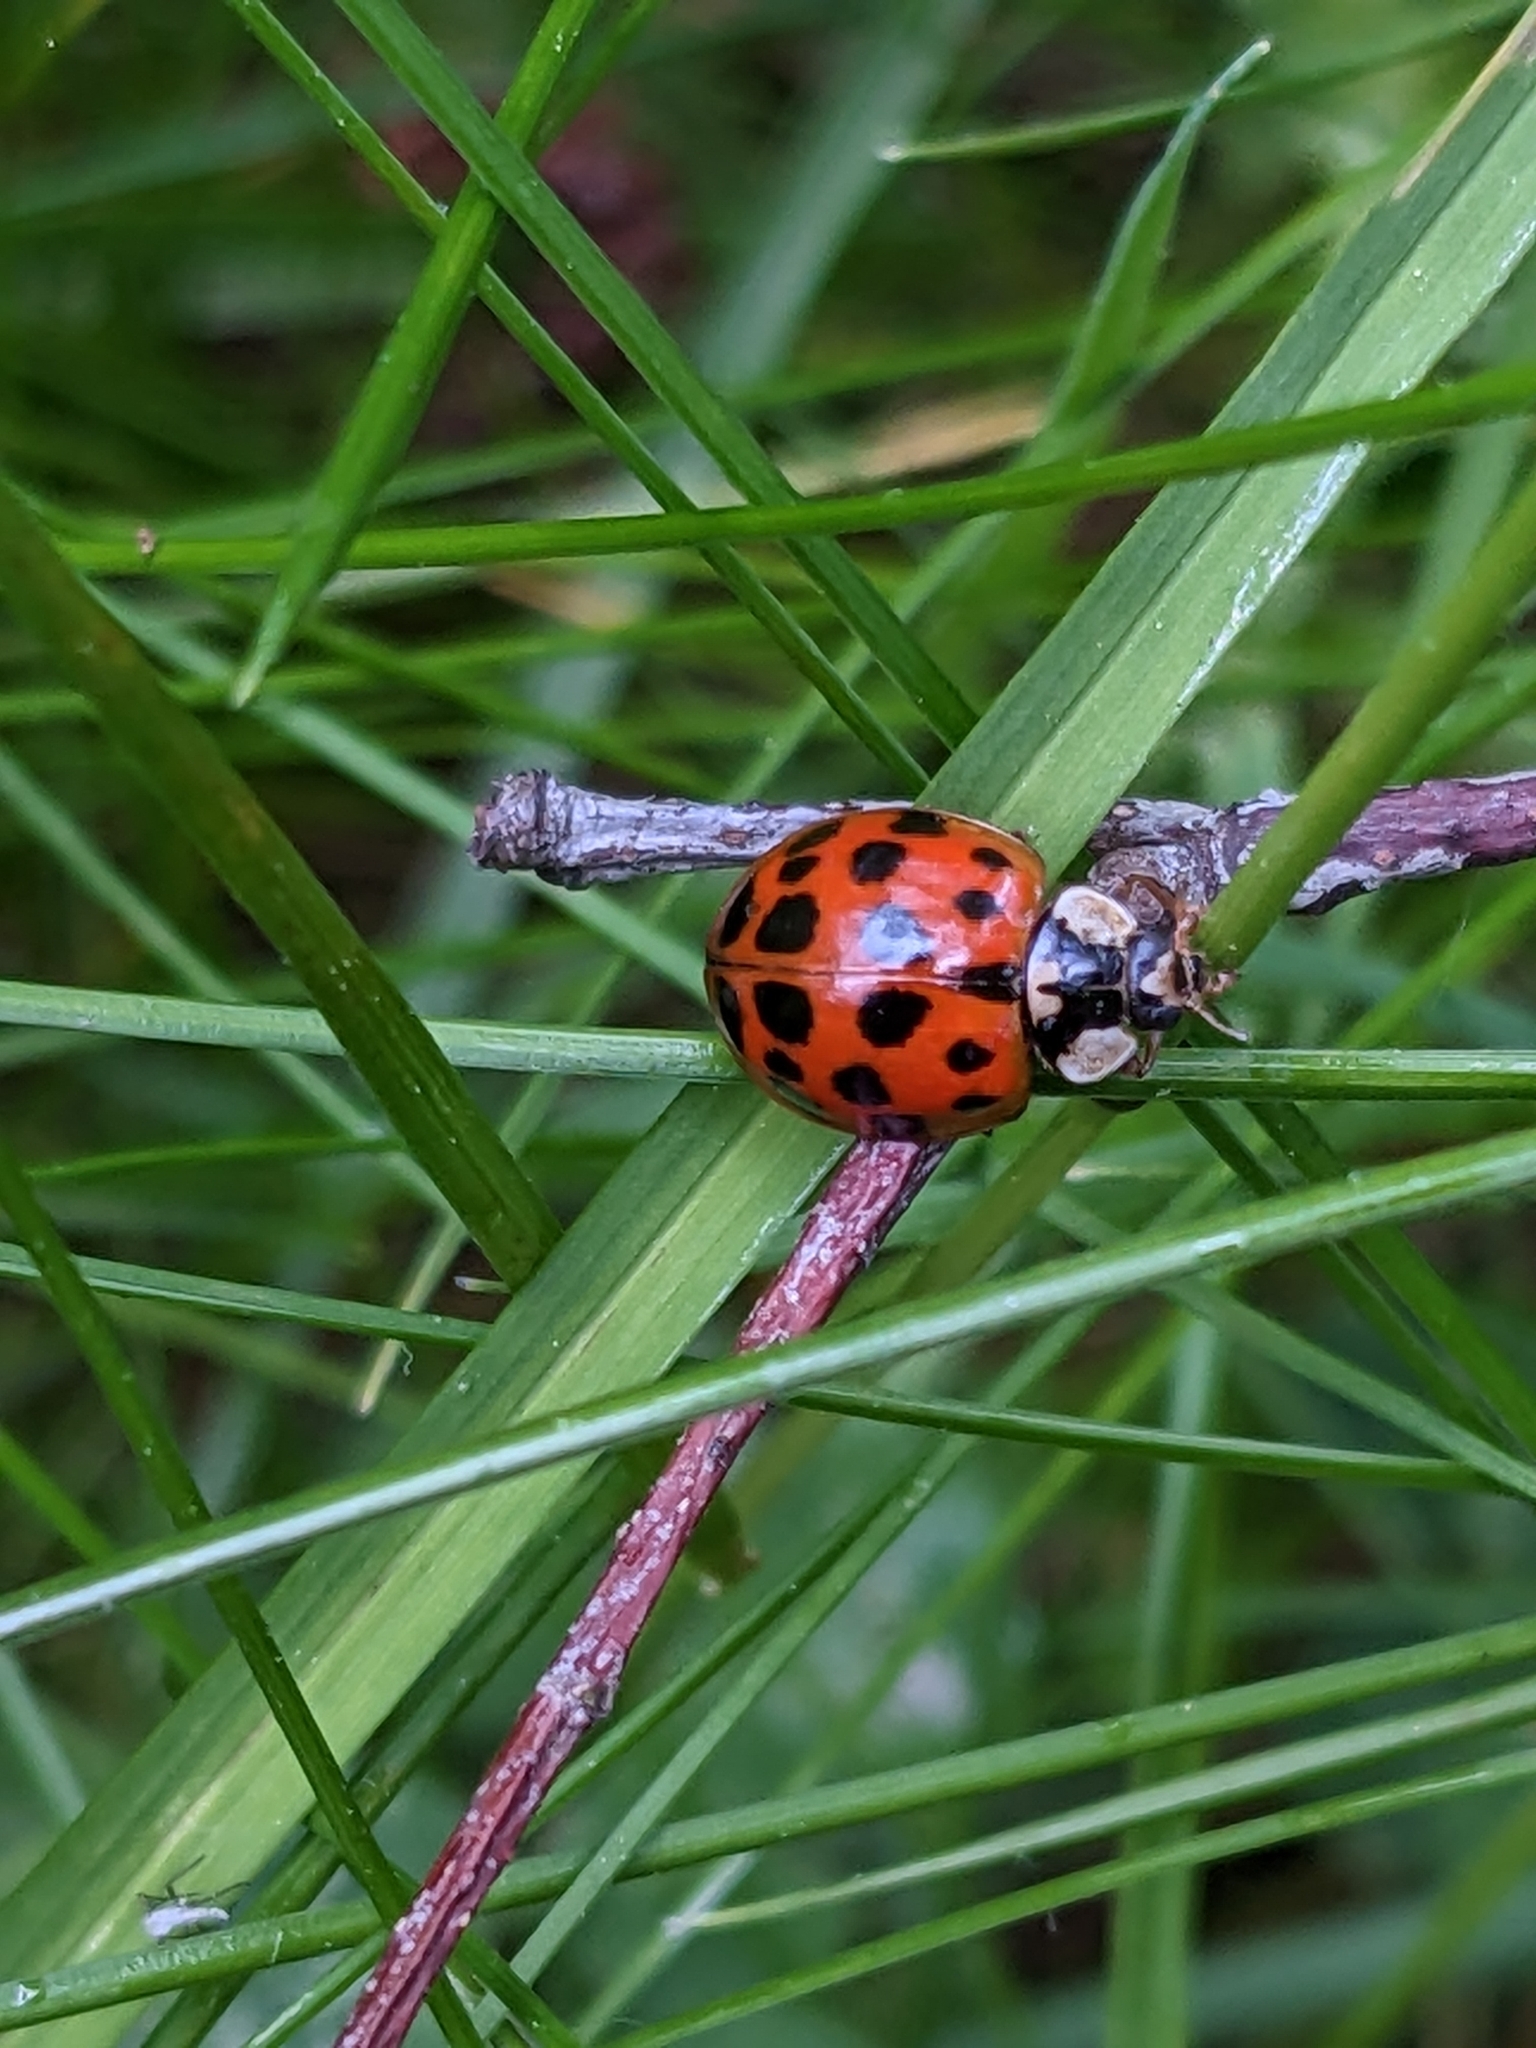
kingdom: Animalia
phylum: Arthropoda
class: Insecta
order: Coleoptera
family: Coccinellidae
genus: Harmonia
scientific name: Harmonia axyridis
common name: Harlequin ladybird
